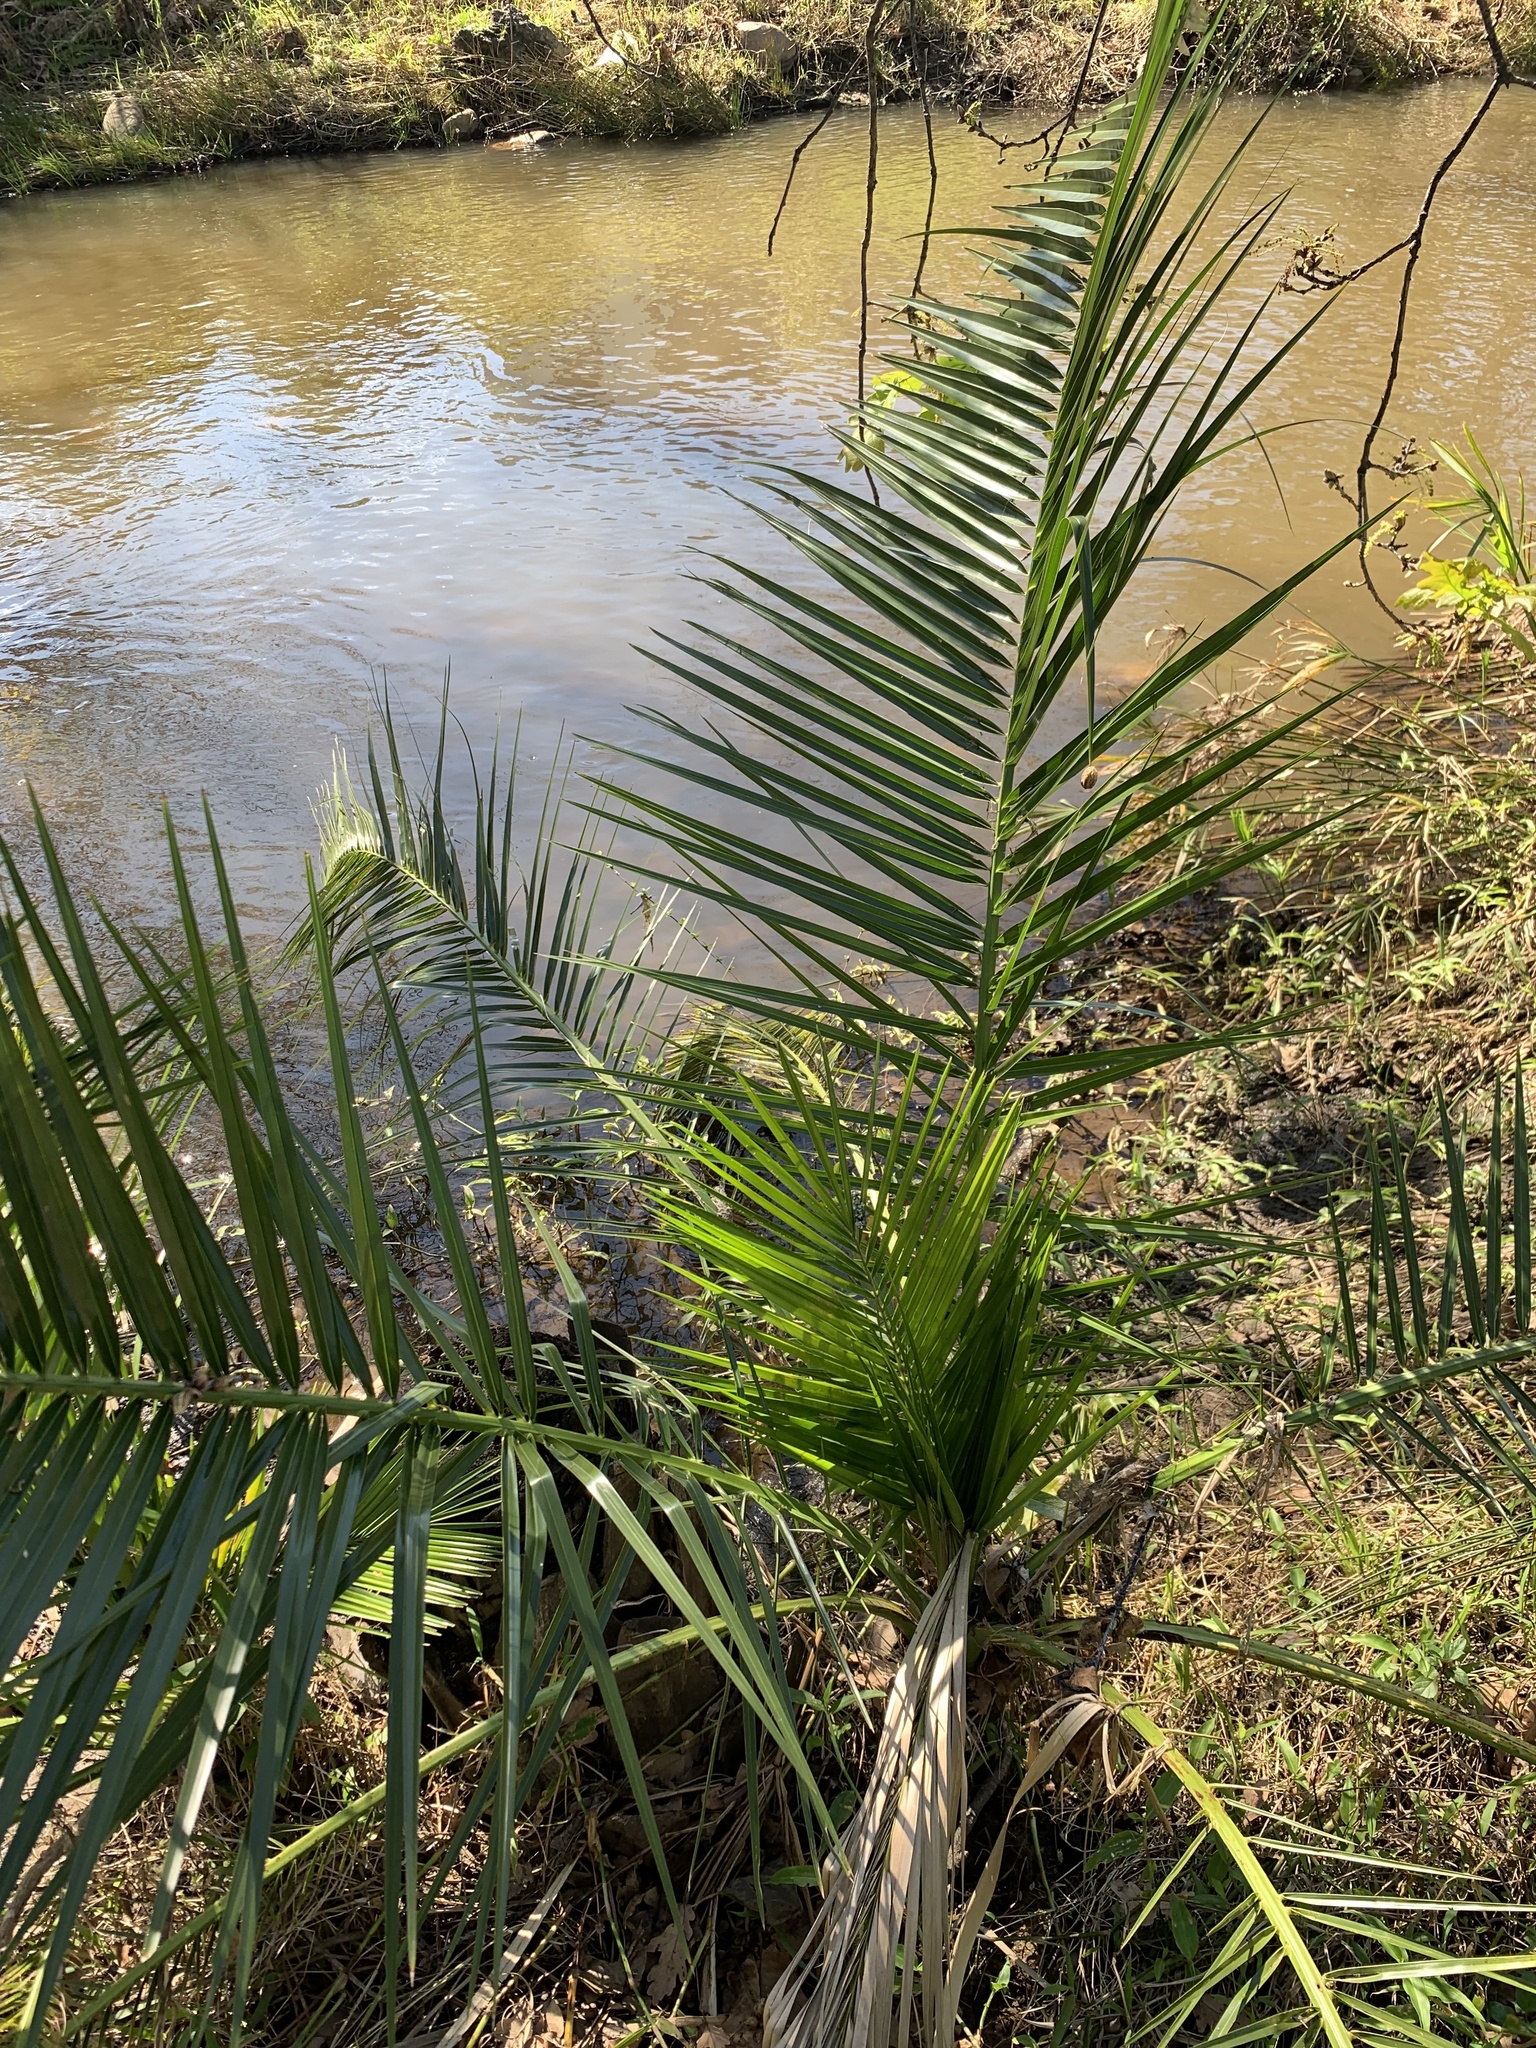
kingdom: Plantae
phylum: Tracheophyta
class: Liliopsida
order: Arecales
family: Arecaceae
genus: Phoenix
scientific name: Phoenix canariensis
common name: Canary island date palm
